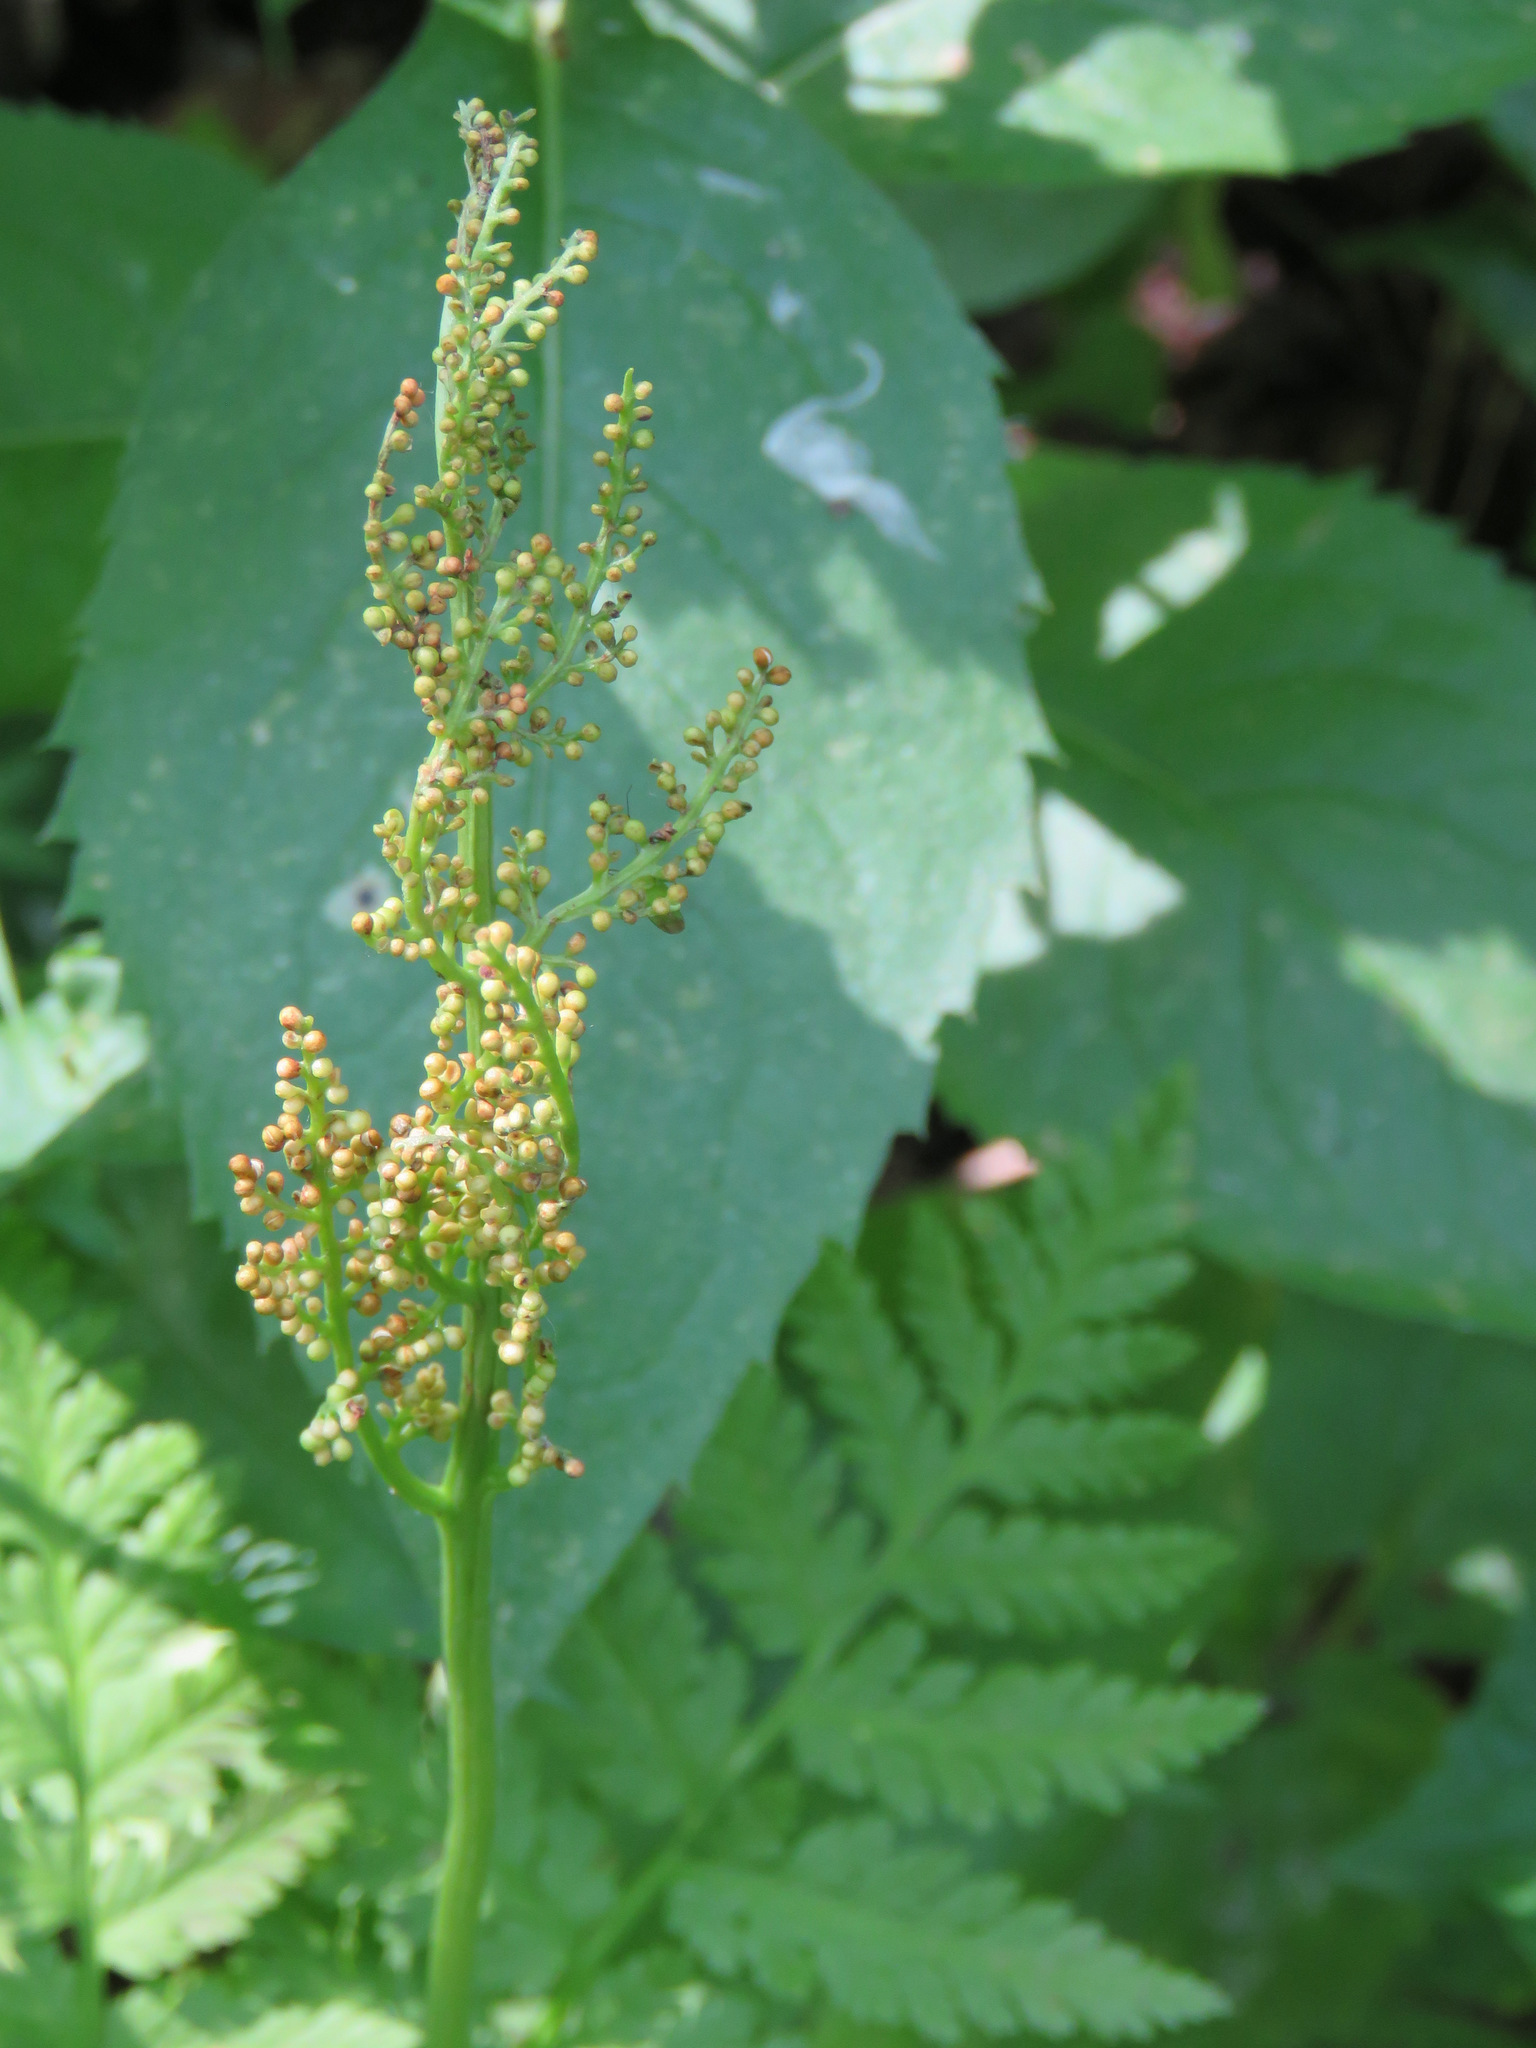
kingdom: Plantae
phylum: Tracheophyta
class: Polypodiopsida
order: Ophioglossales
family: Ophioglossaceae
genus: Botrypus
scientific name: Botrypus virginianus
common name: Common grapefern
